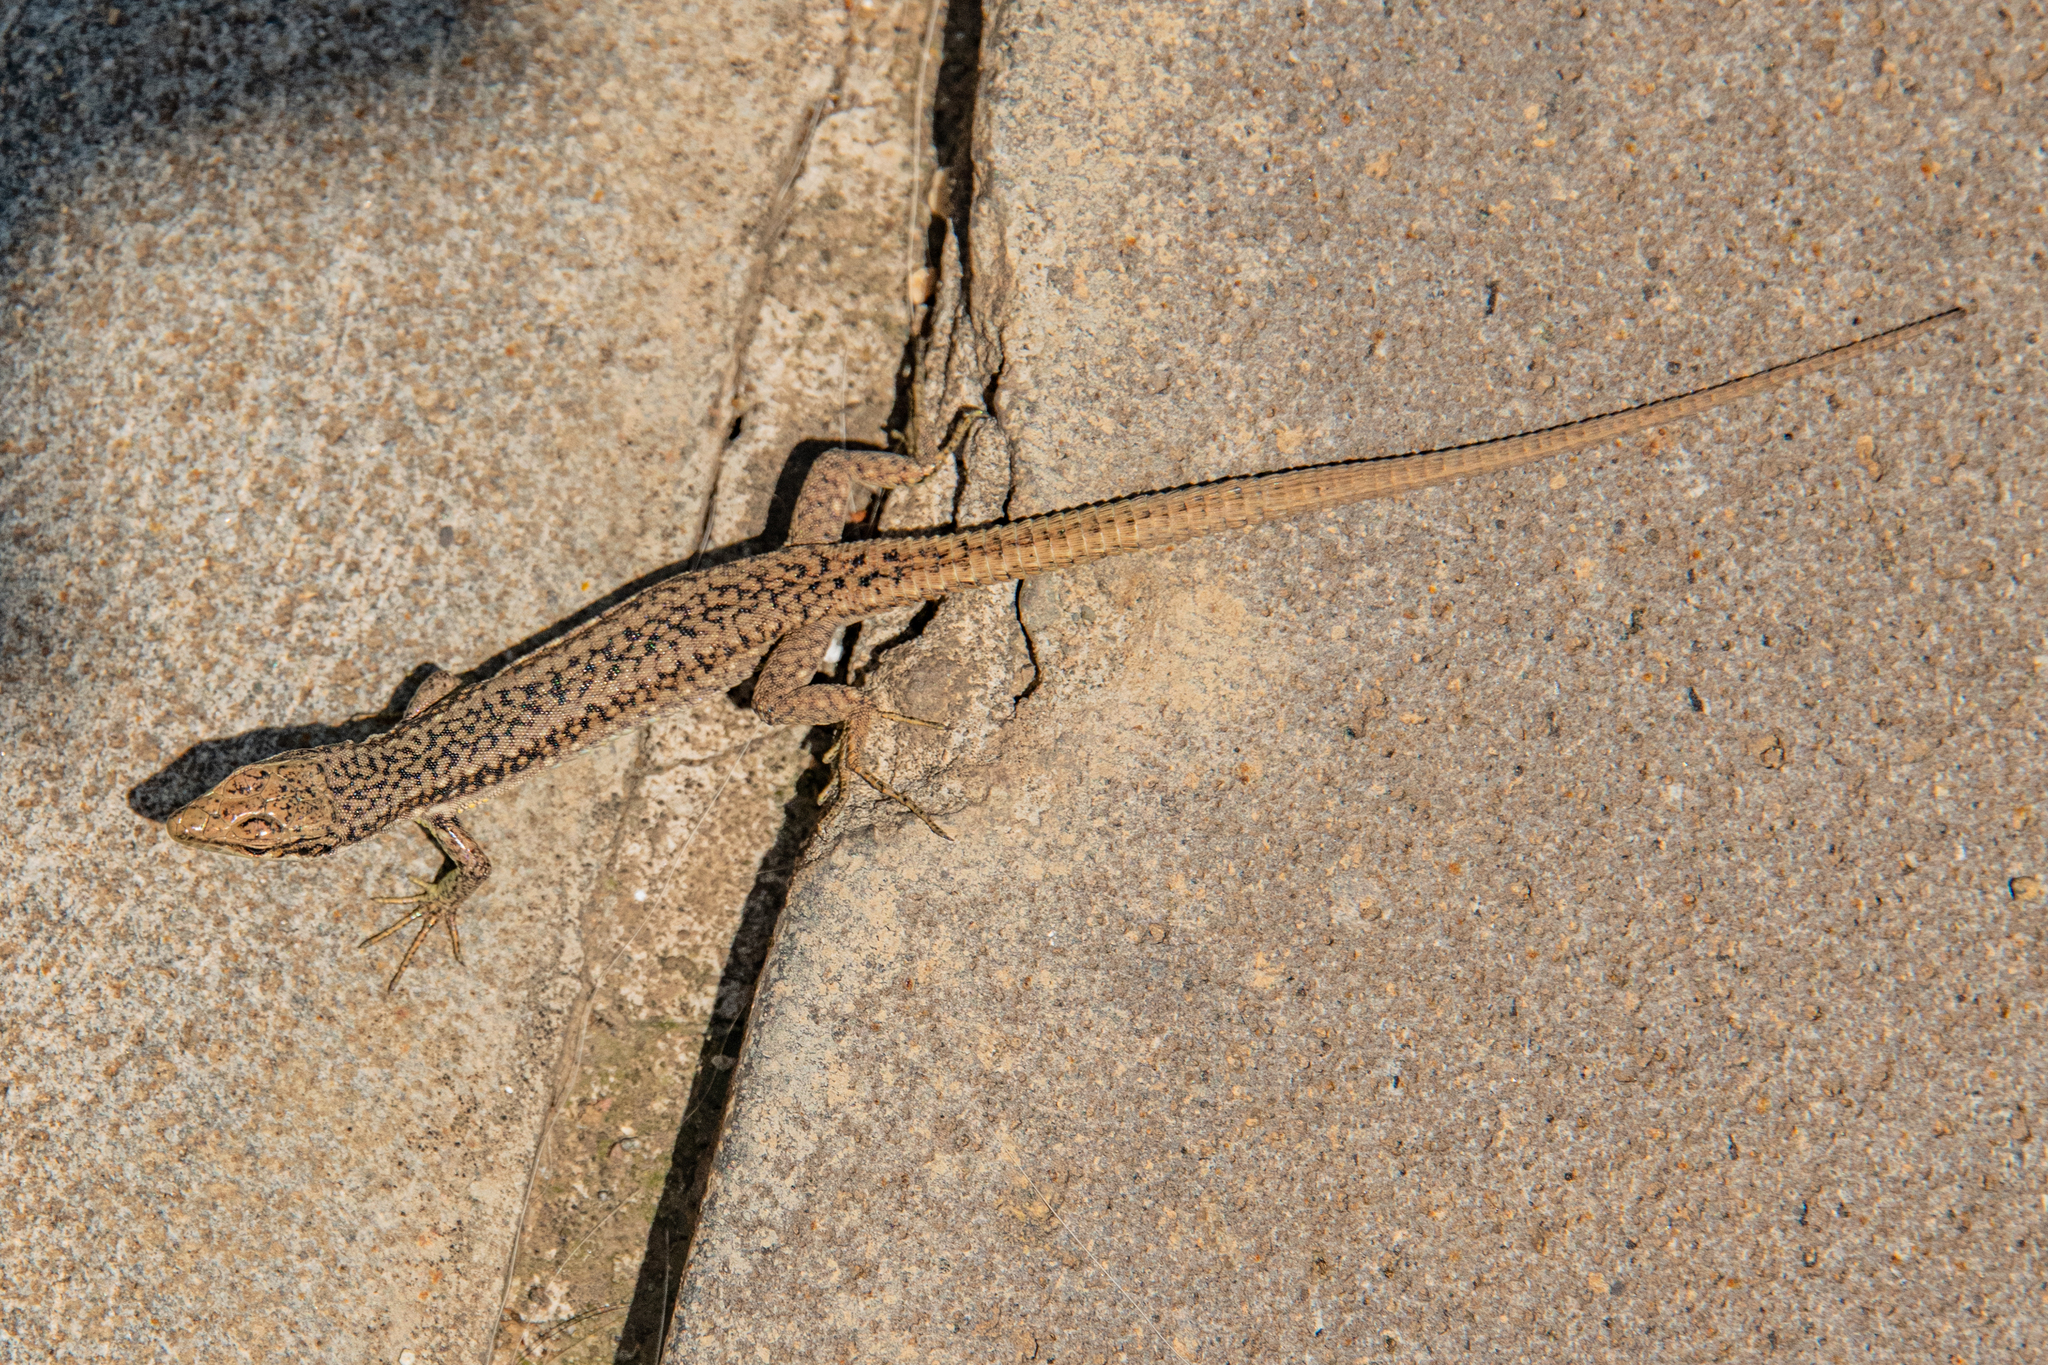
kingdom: Animalia
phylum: Chordata
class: Squamata
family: Lacertidae
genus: Darevskia
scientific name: Darevskia rostombekowi
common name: Rostombekow's lizard
